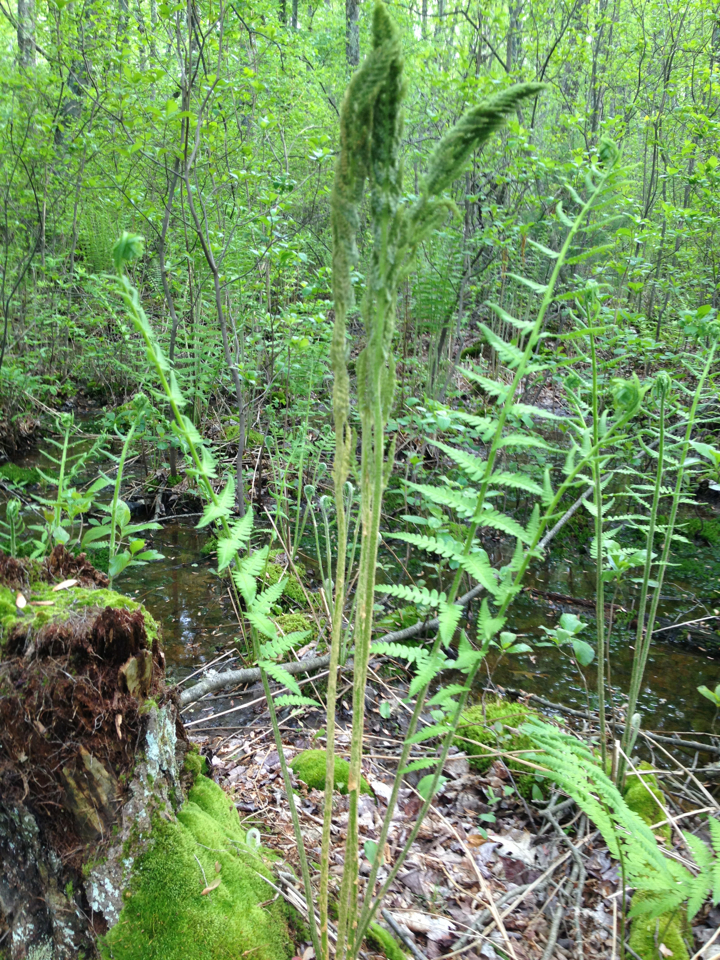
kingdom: Plantae
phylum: Tracheophyta
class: Polypodiopsida
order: Osmundales
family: Osmundaceae
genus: Osmundastrum
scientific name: Osmundastrum cinnamomeum
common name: Cinnamon fern
